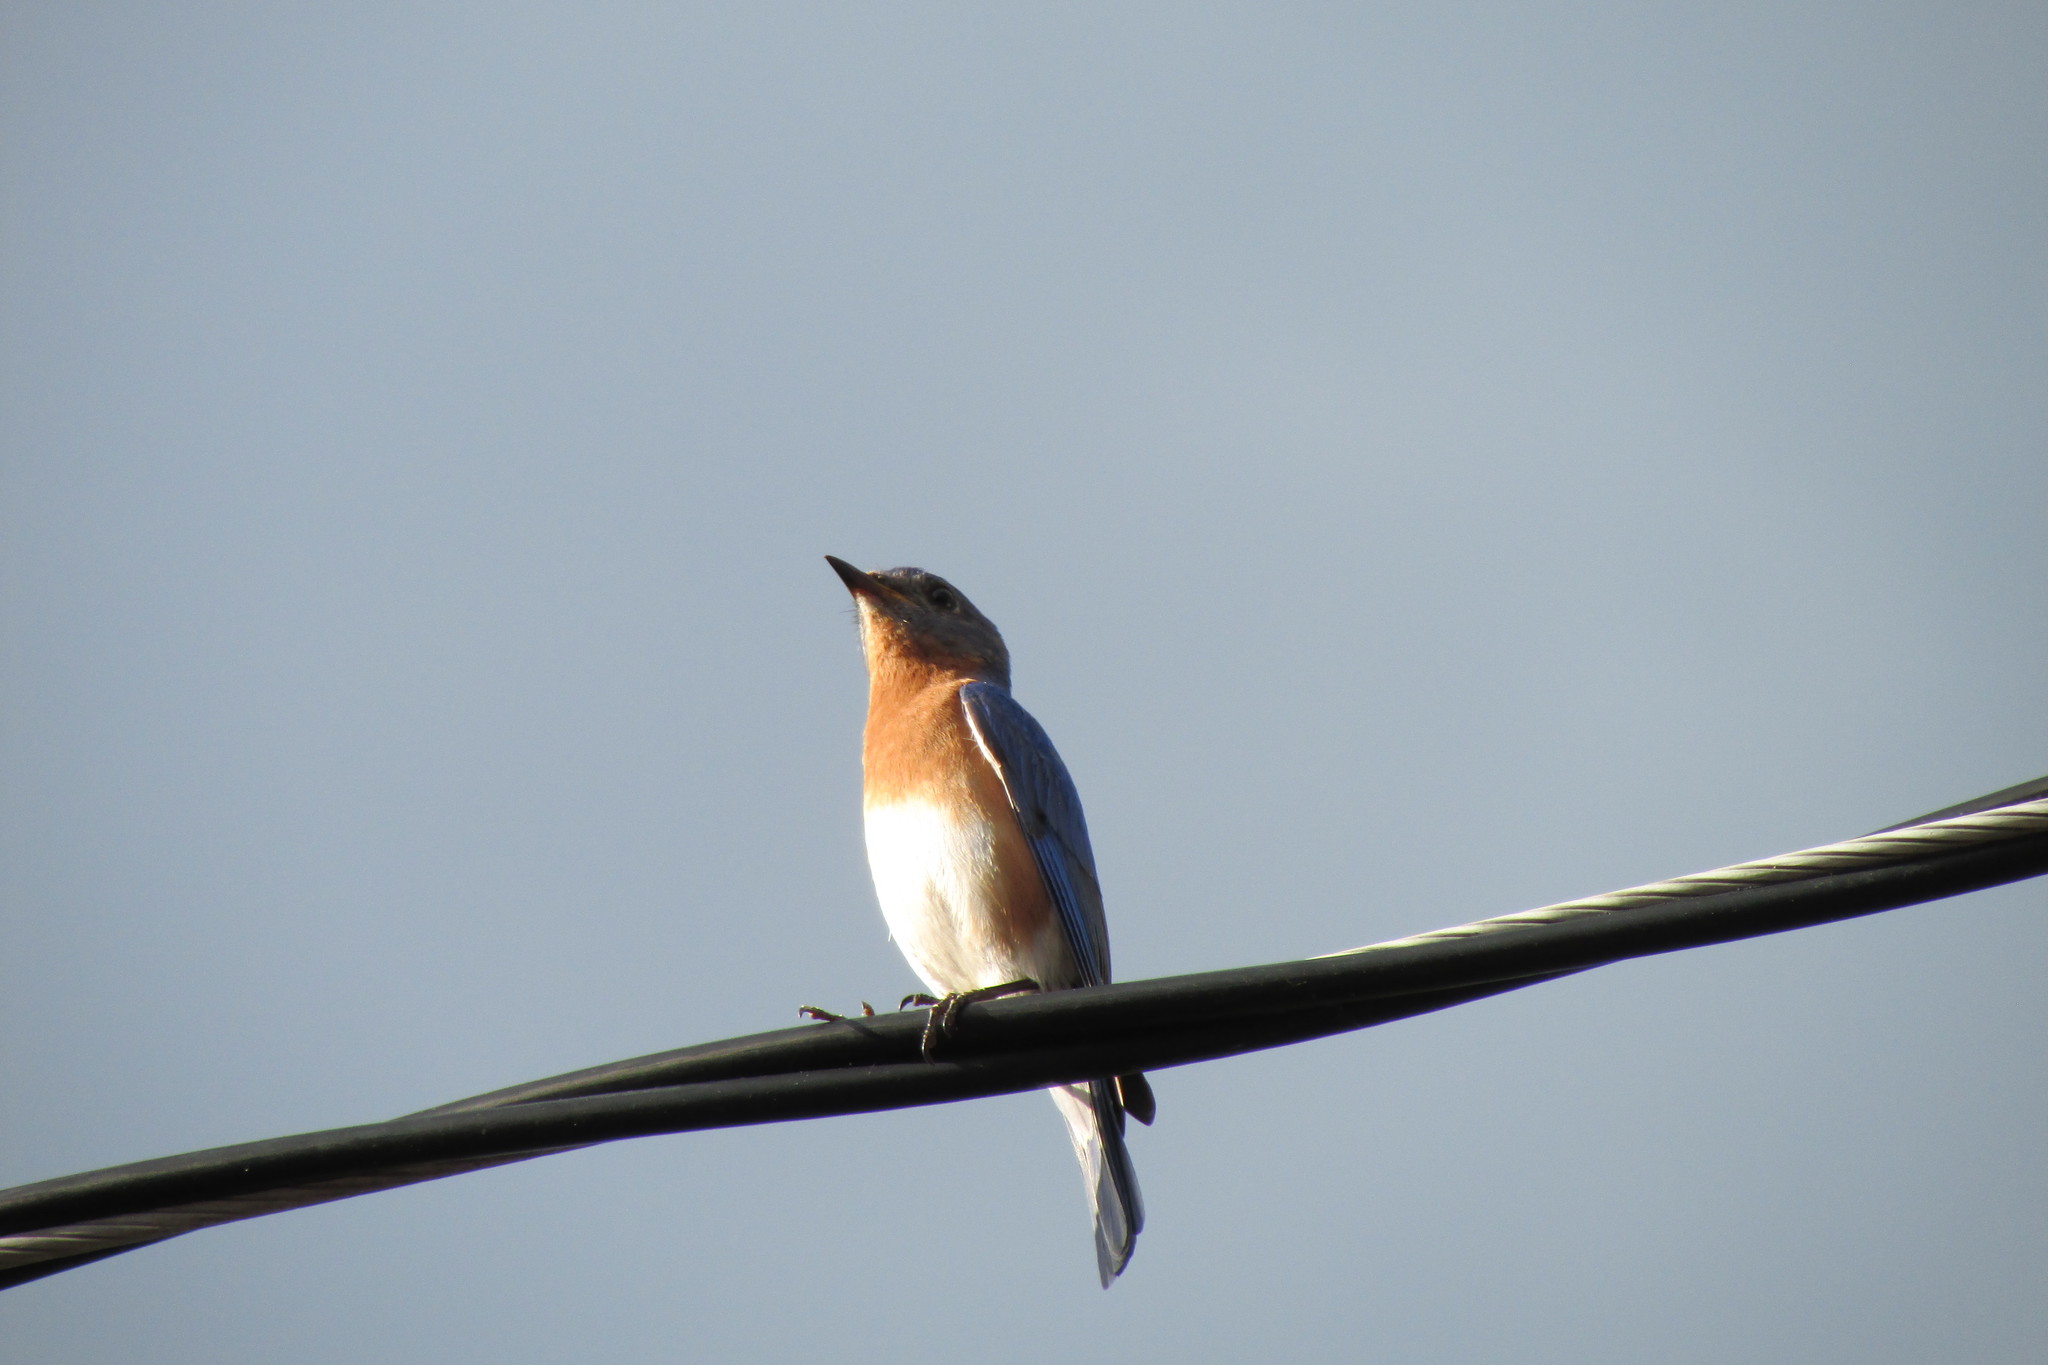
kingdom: Animalia
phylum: Chordata
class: Aves
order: Passeriformes
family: Turdidae
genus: Sialia
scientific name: Sialia sialis
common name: Eastern bluebird
